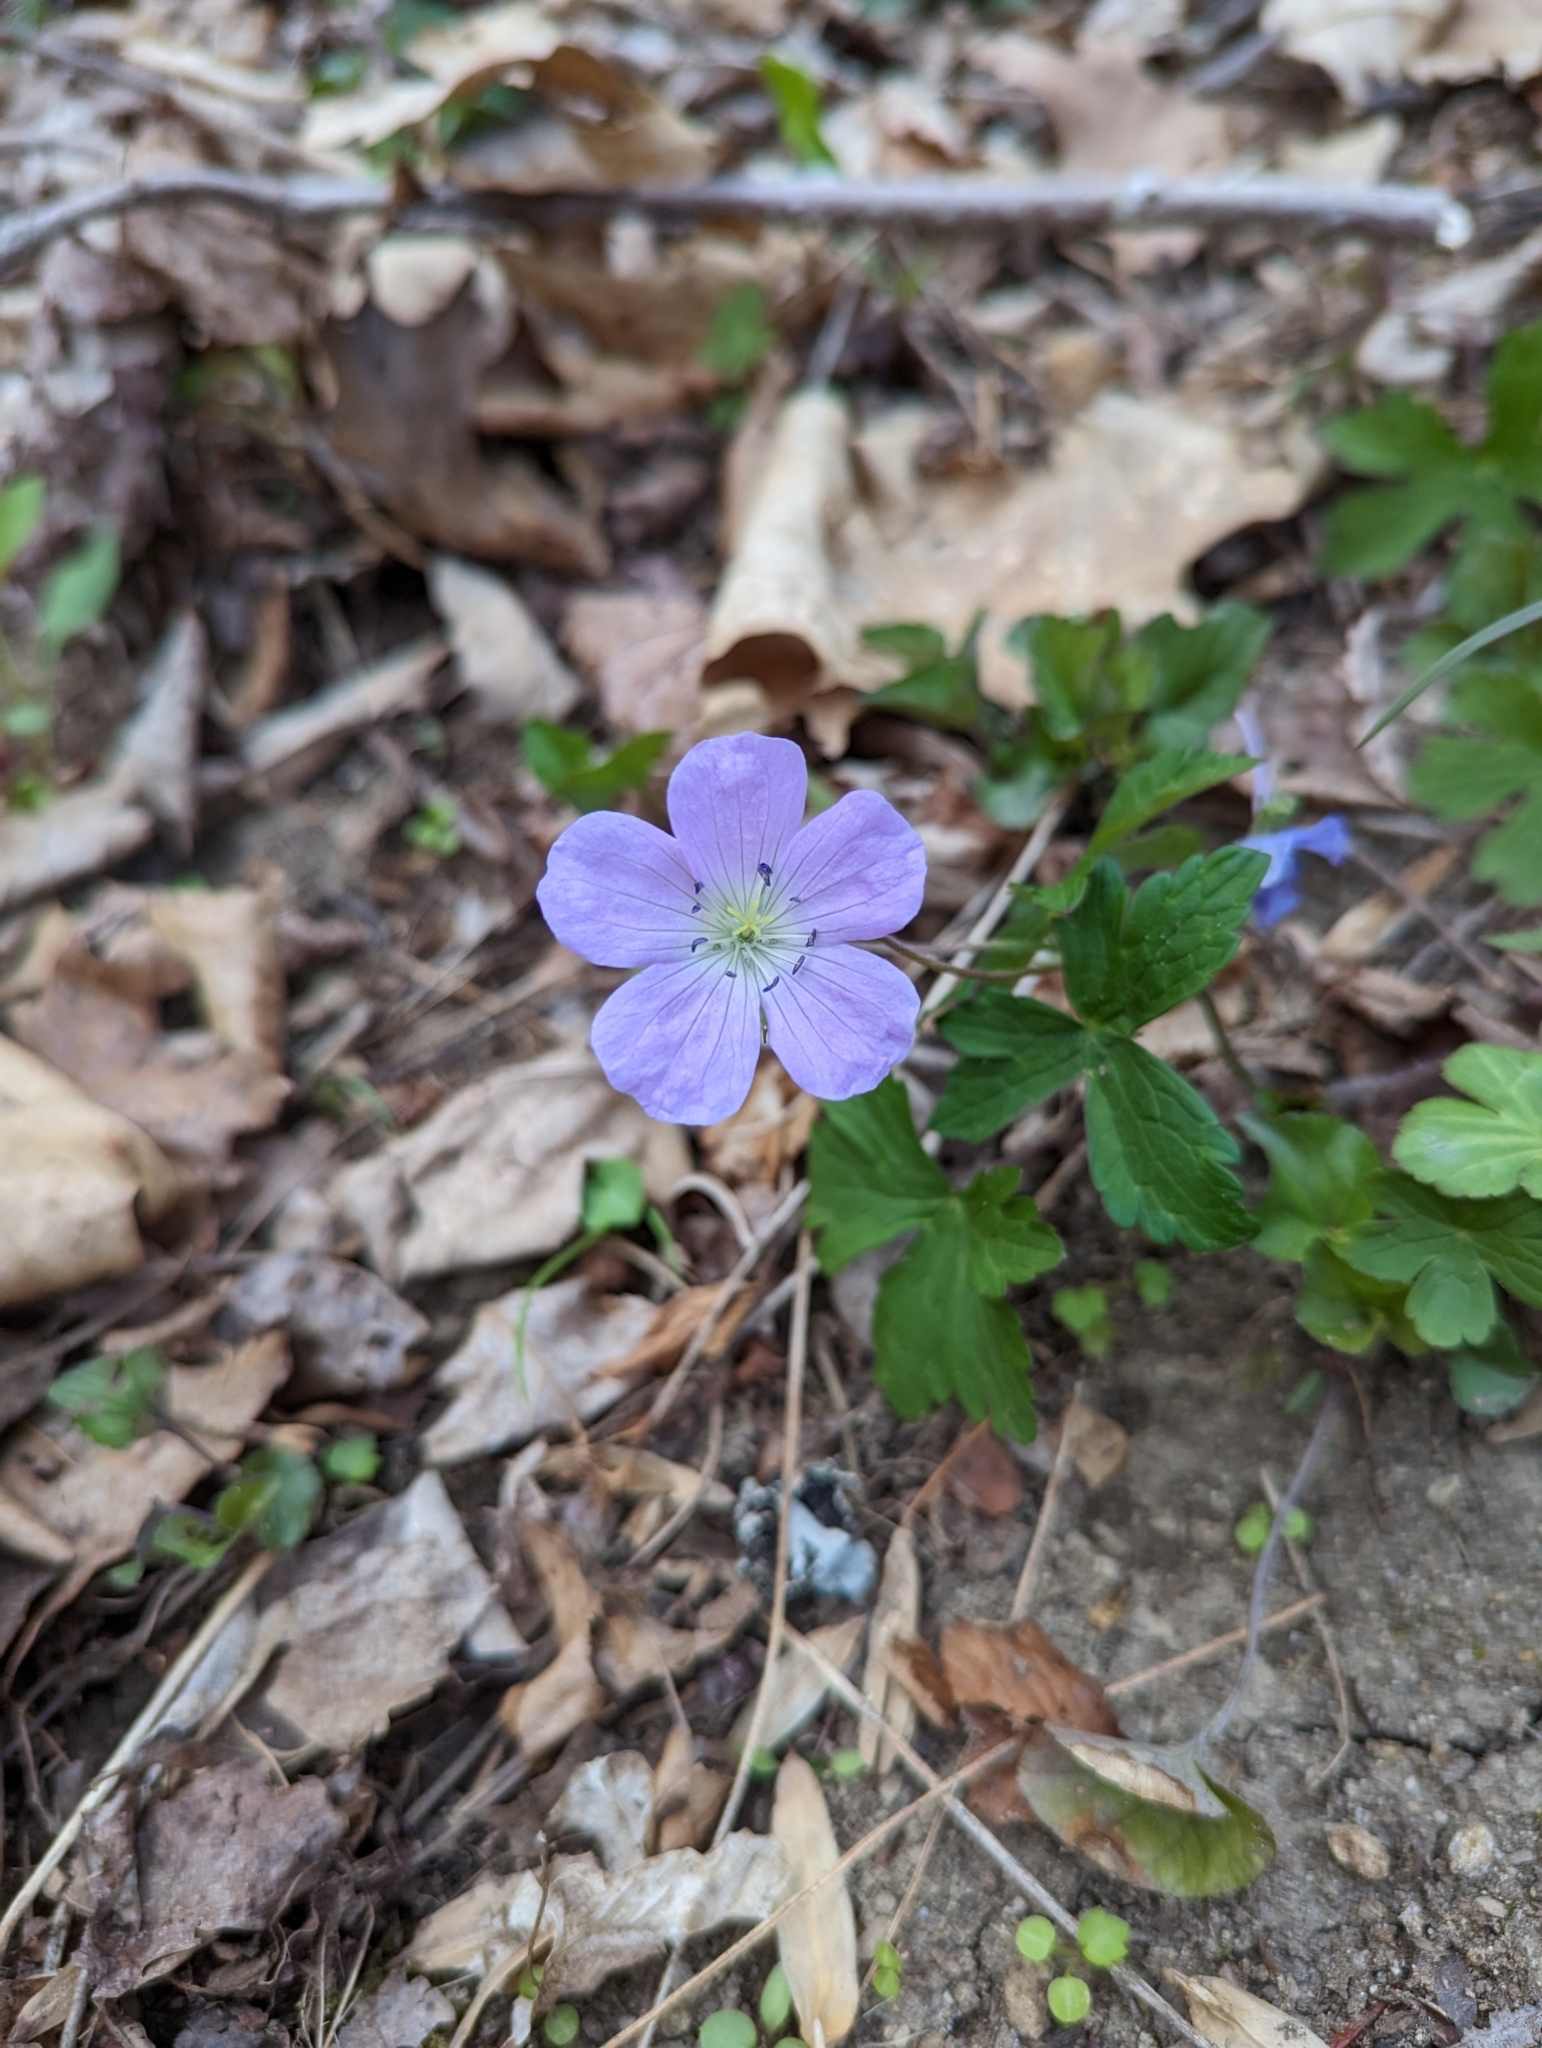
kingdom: Plantae
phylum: Tracheophyta
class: Magnoliopsida
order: Geraniales
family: Geraniaceae
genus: Geranium
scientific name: Geranium maculatum
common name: Spotted geranium
